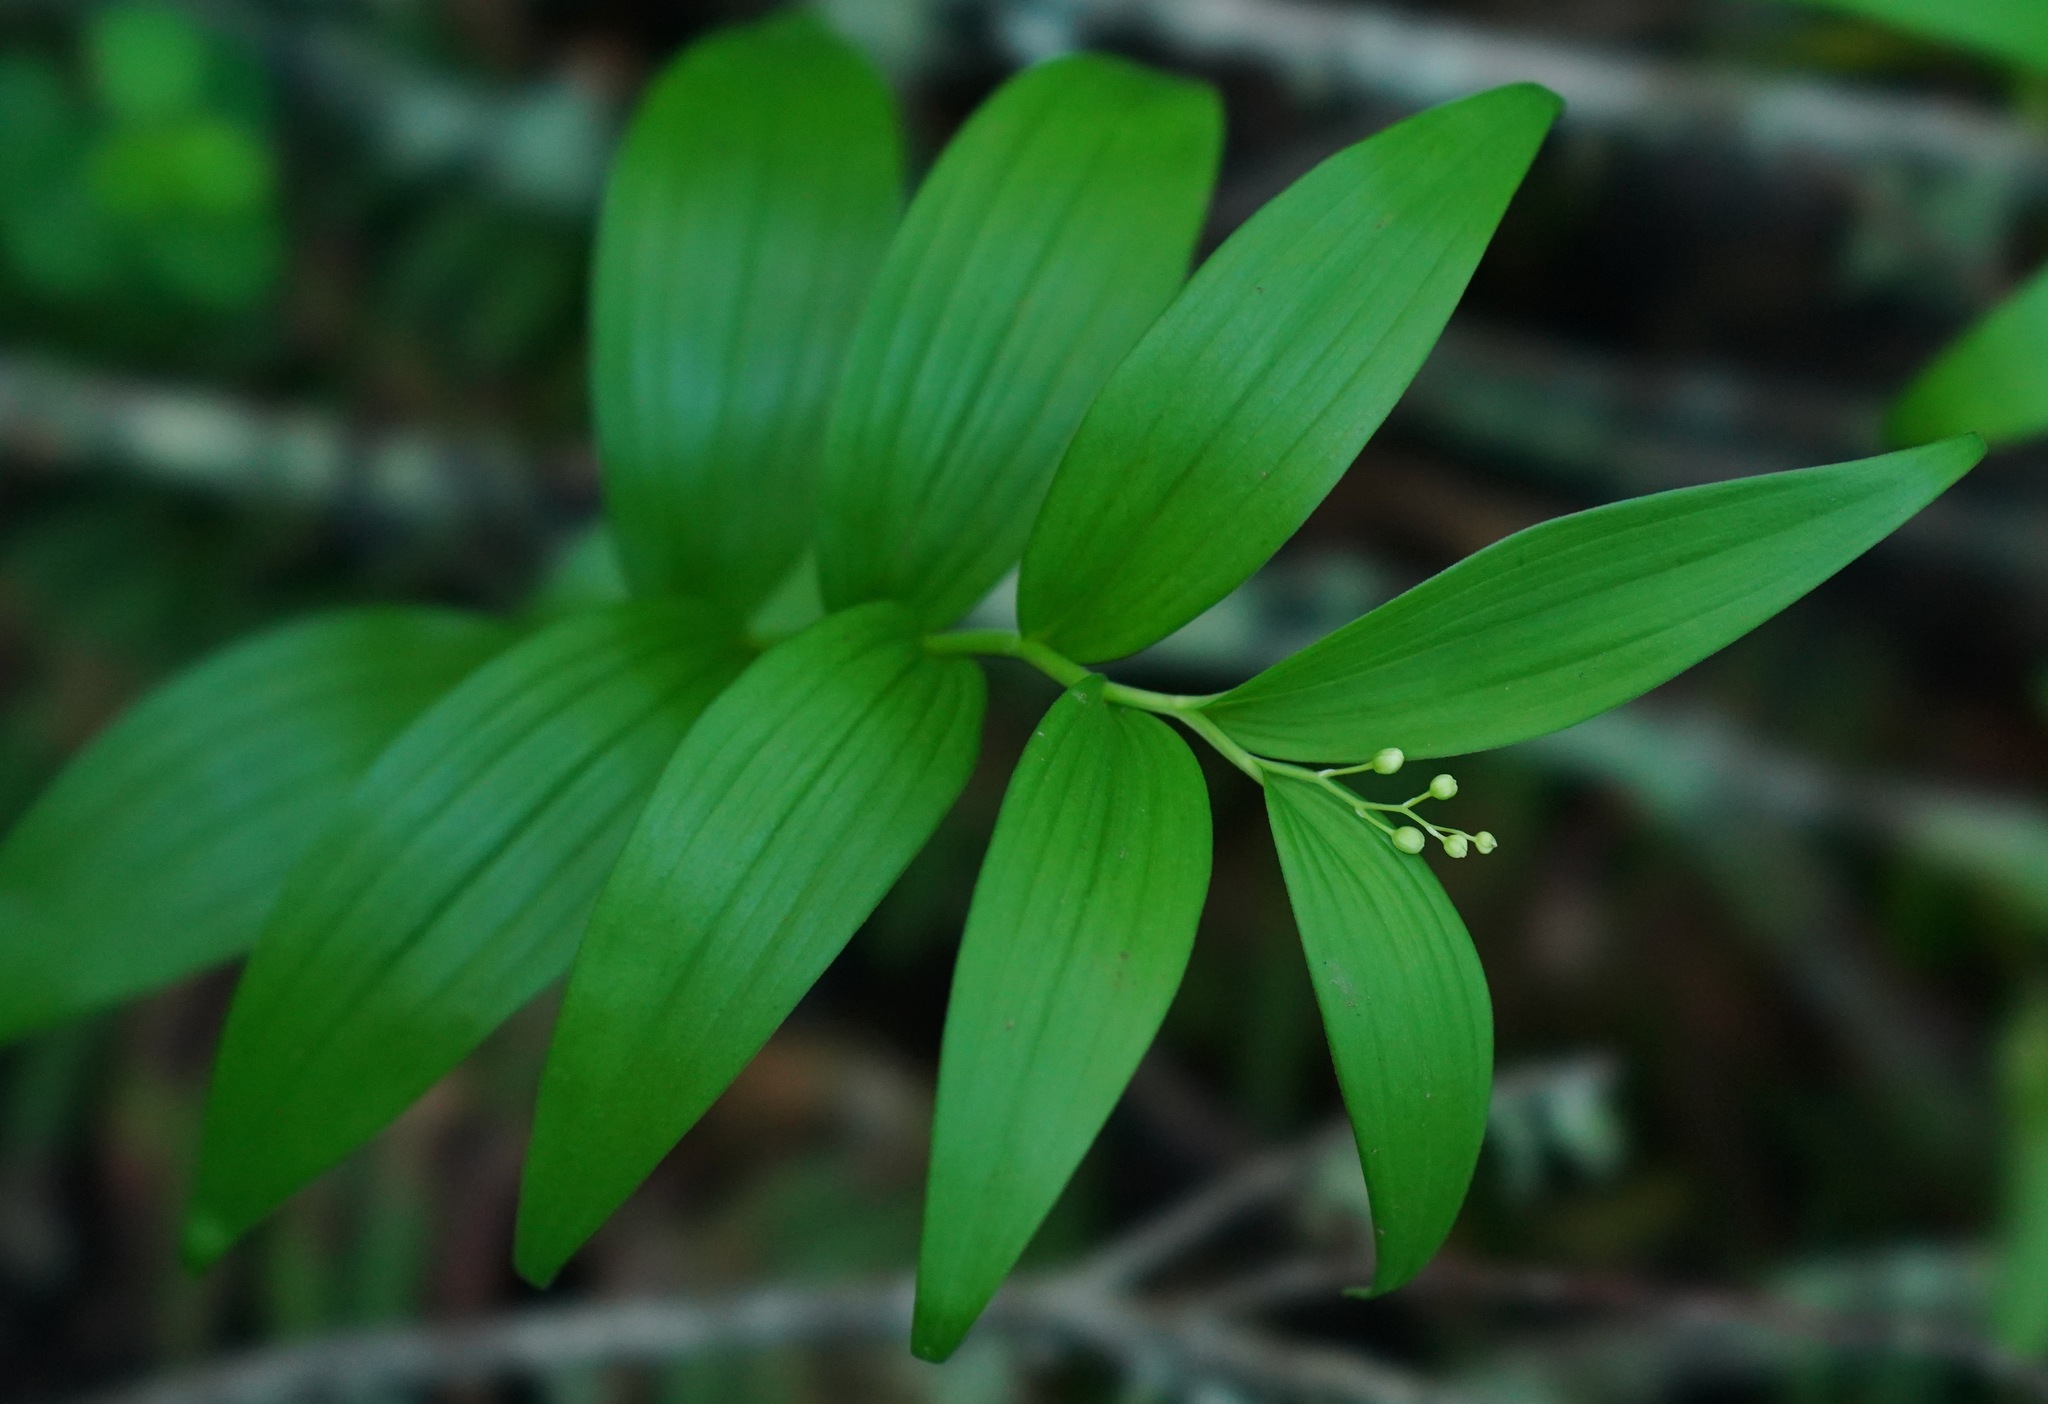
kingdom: Plantae
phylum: Tracheophyta
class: Liliopsida
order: Asparagales
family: Asparagaceae
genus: Maianthemum
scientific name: Maianthemum stellatum
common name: Little false solomon's seal
